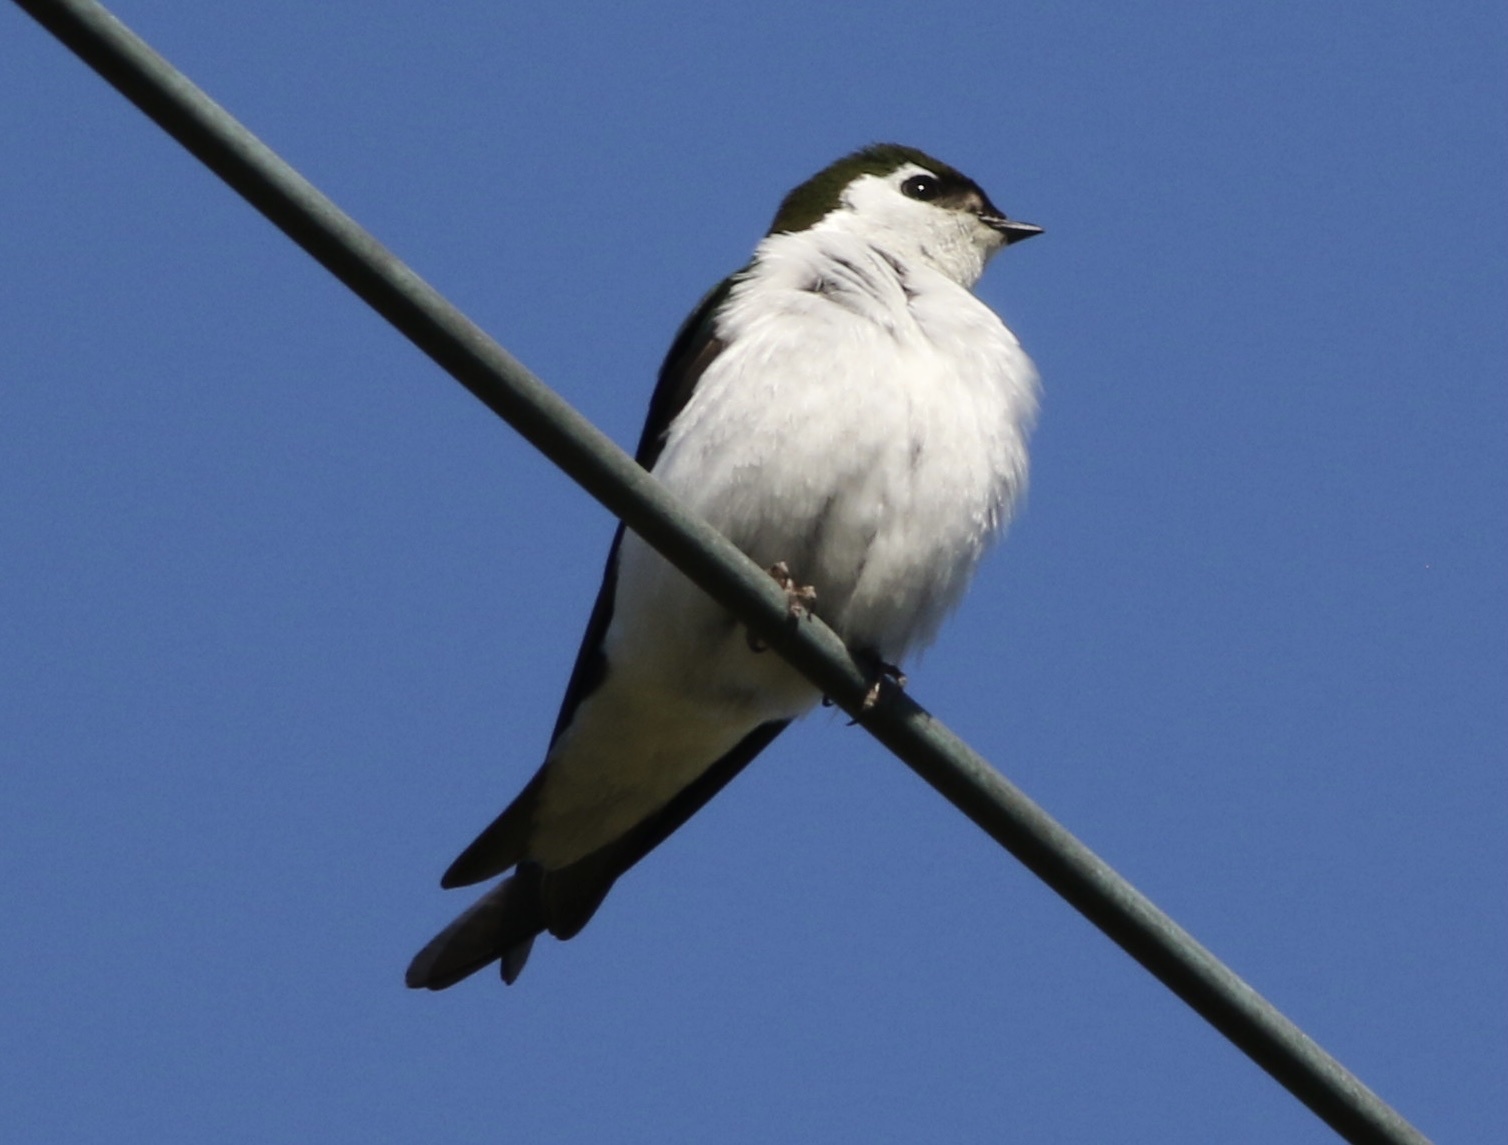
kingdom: Animalia
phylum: Chordata
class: Aves
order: Passeriformes
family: Hirundinidae
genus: Tachycineta
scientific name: Tachycineta thalassina
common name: Violet-green swallow
